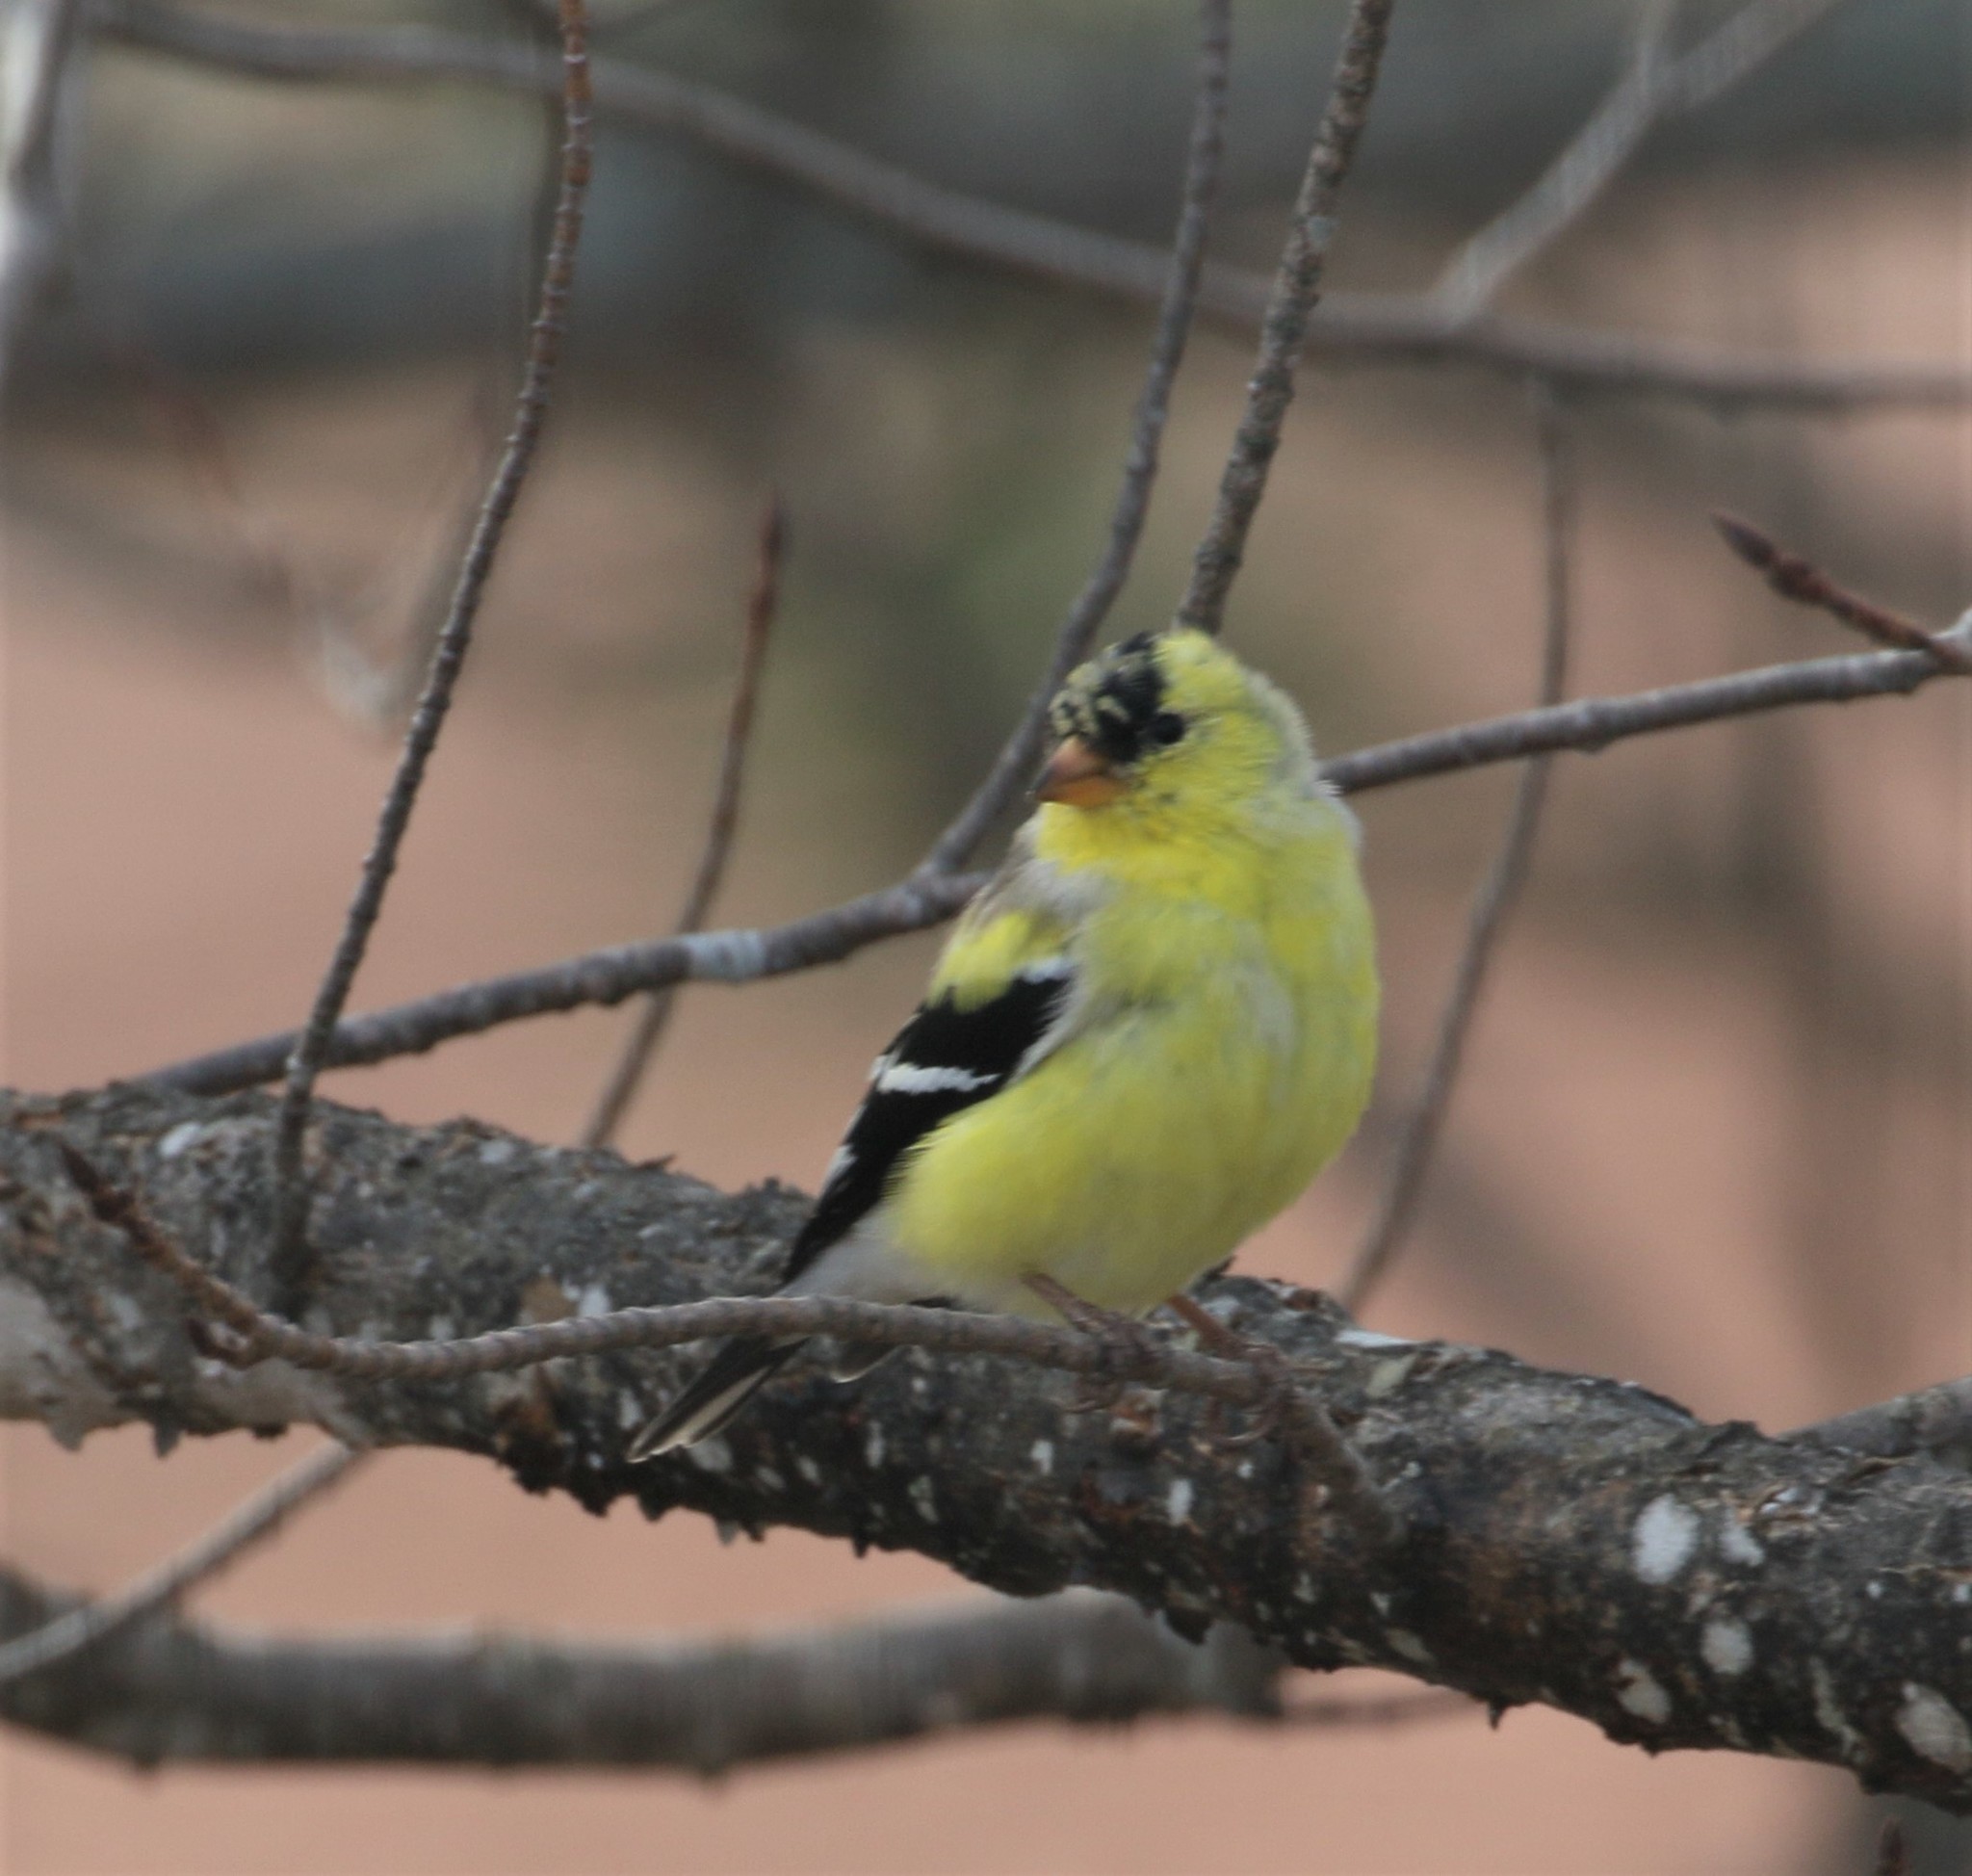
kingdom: Animalia
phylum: Chordata
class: Aves
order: Passeriformes
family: Fringillidae
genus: Spinus
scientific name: Spinus tristis
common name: American goldfinch
